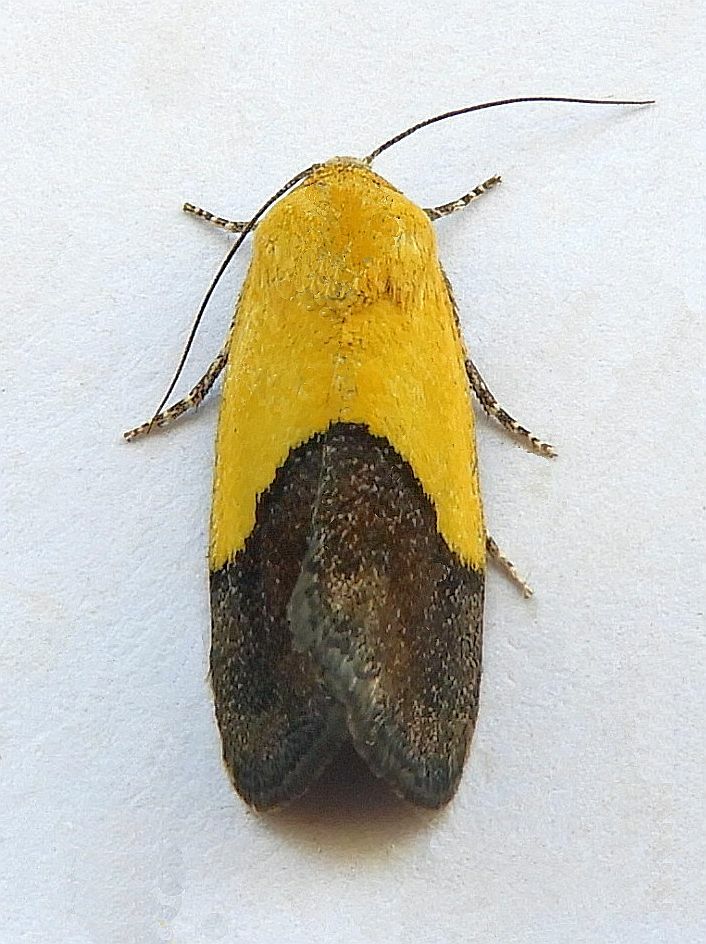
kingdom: Animalia
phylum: Arthropoda
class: Insecta
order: Lepidoptera
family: Noctuidae
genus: Acontia
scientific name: Acontia semiflava
